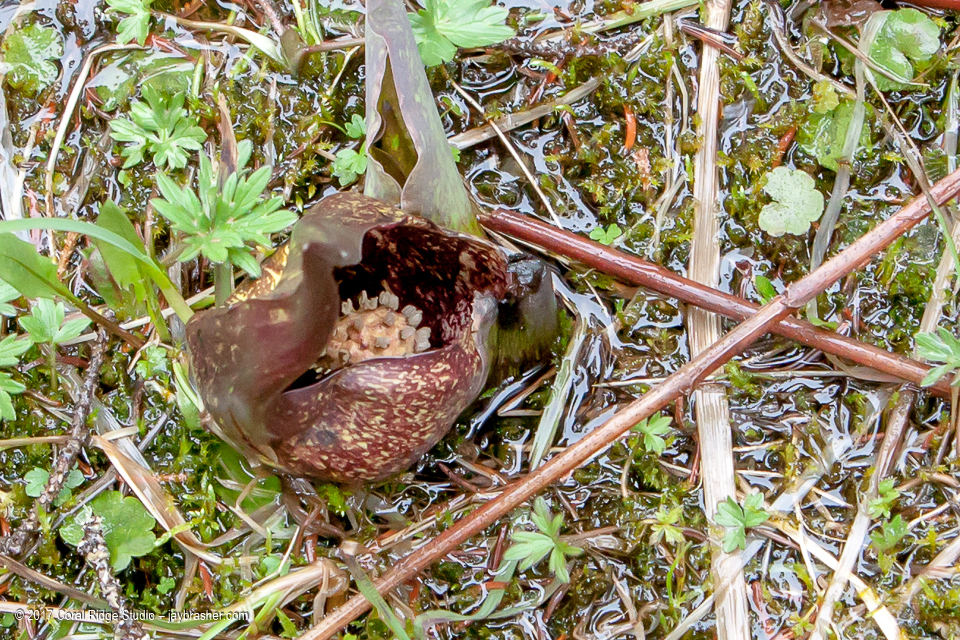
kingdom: Plantae
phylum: Tracheophyta
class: Liliopsida
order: Alismatales
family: Araceae
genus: Symplocarpus
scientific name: Symplocarpus foetidus
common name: Eastern skunk cabbage
